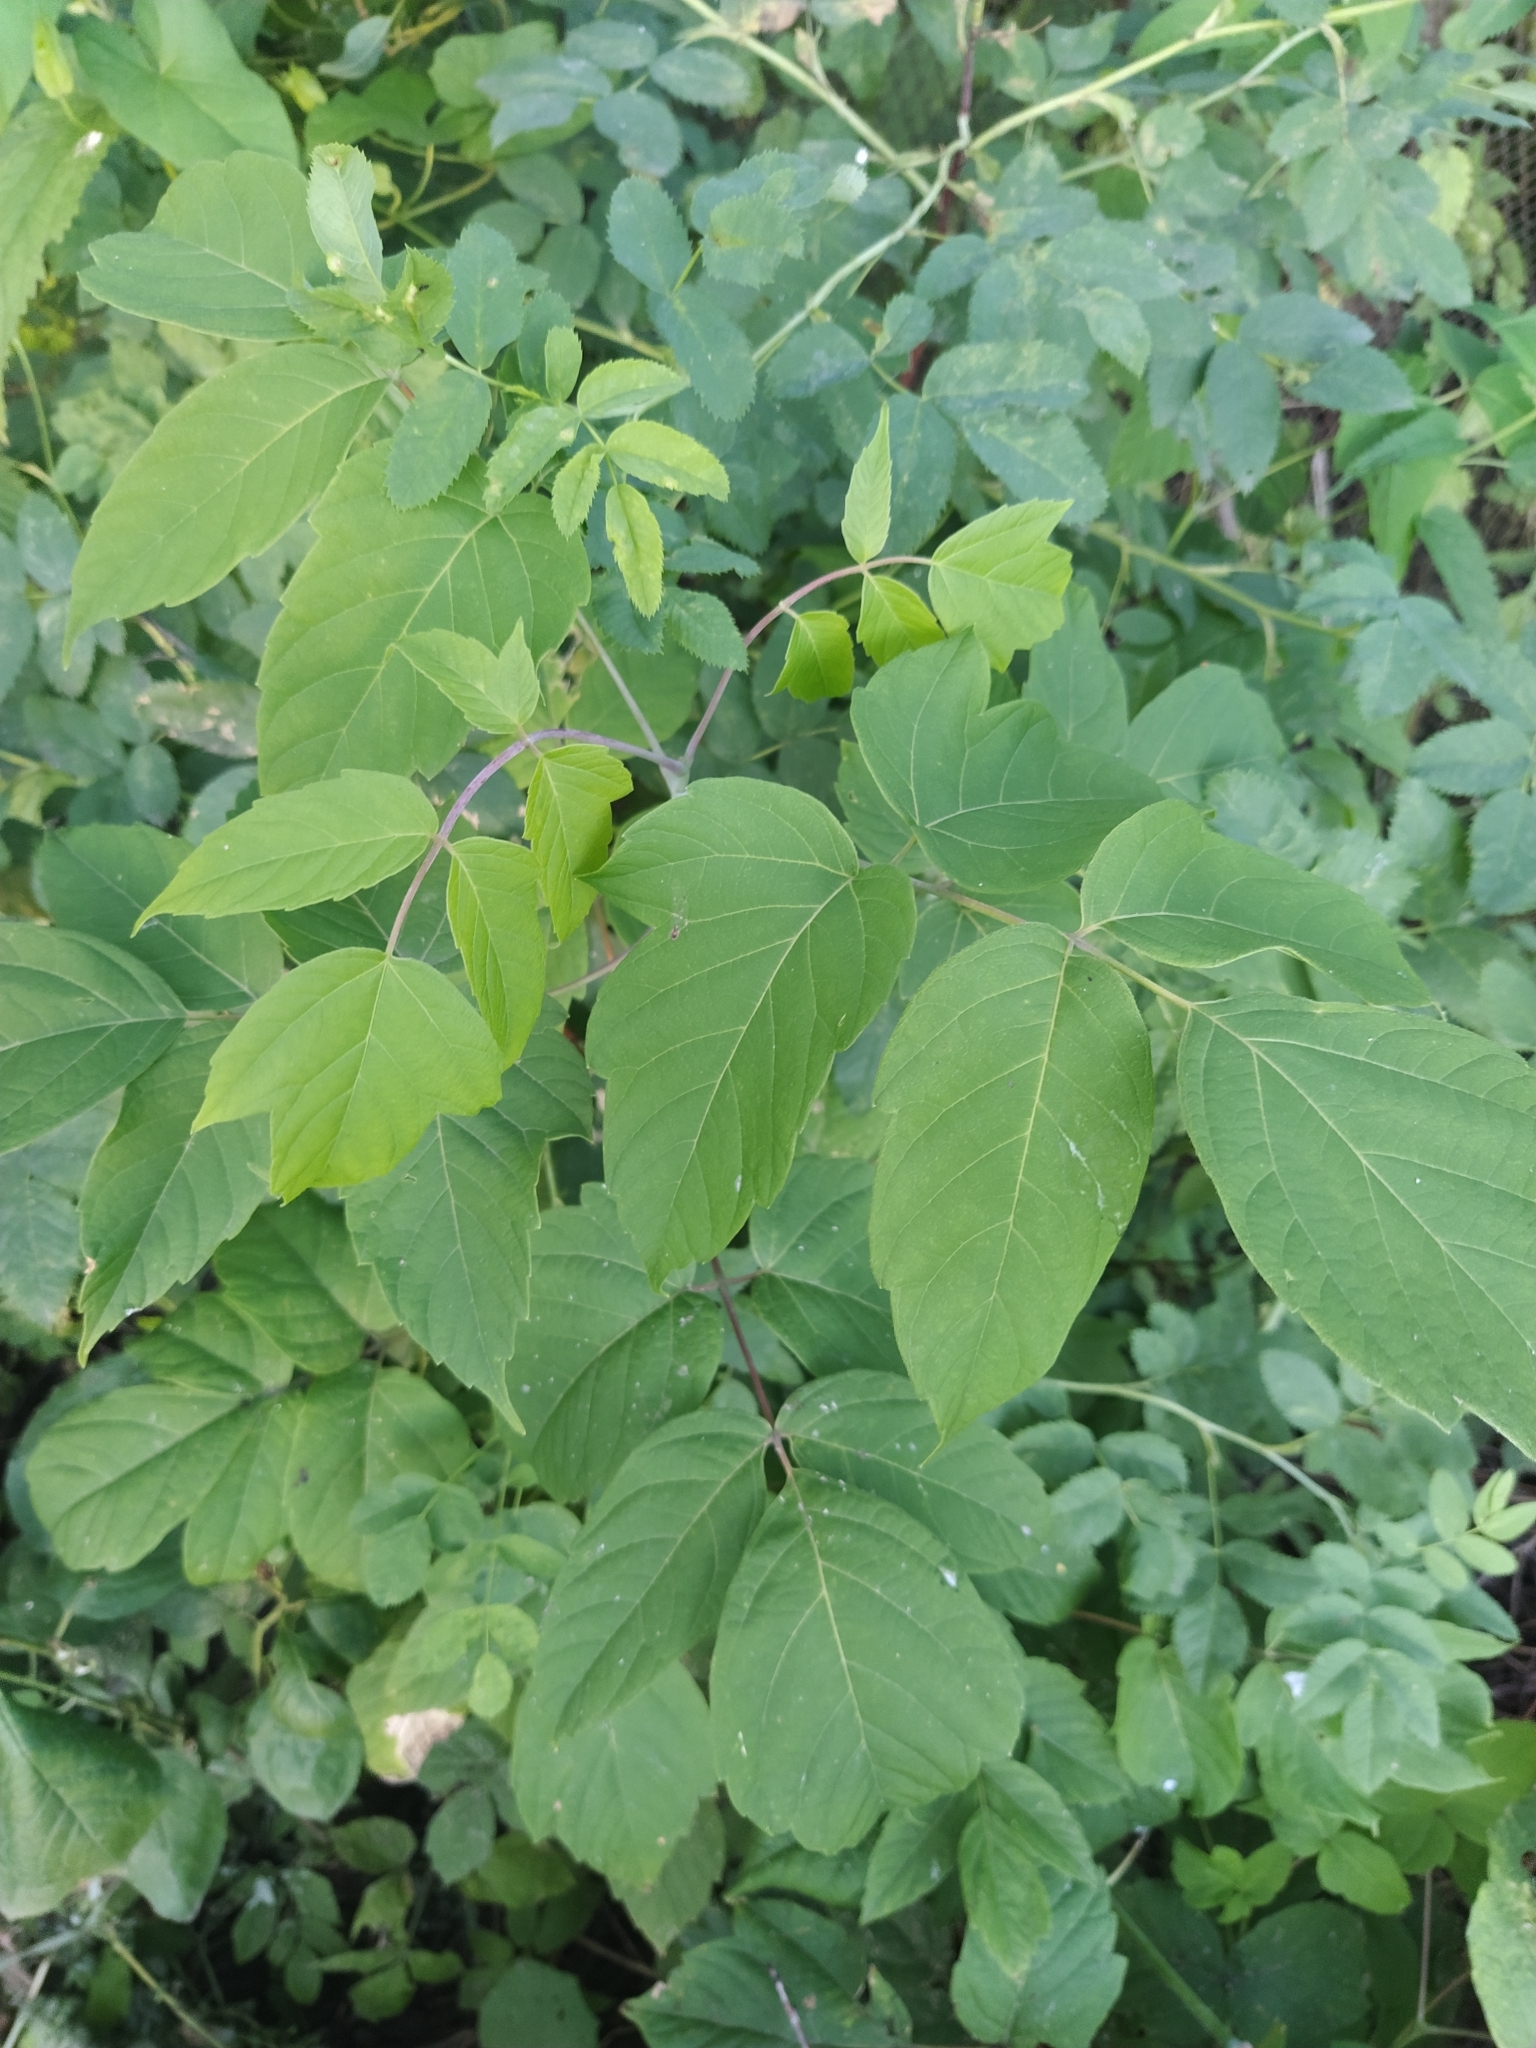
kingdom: Plantae
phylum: Tracheophyta
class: Magnoliopsida
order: Sapindales
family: Sapindaceae
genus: Acer
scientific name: Acer negundo
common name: Ashleaf maple
